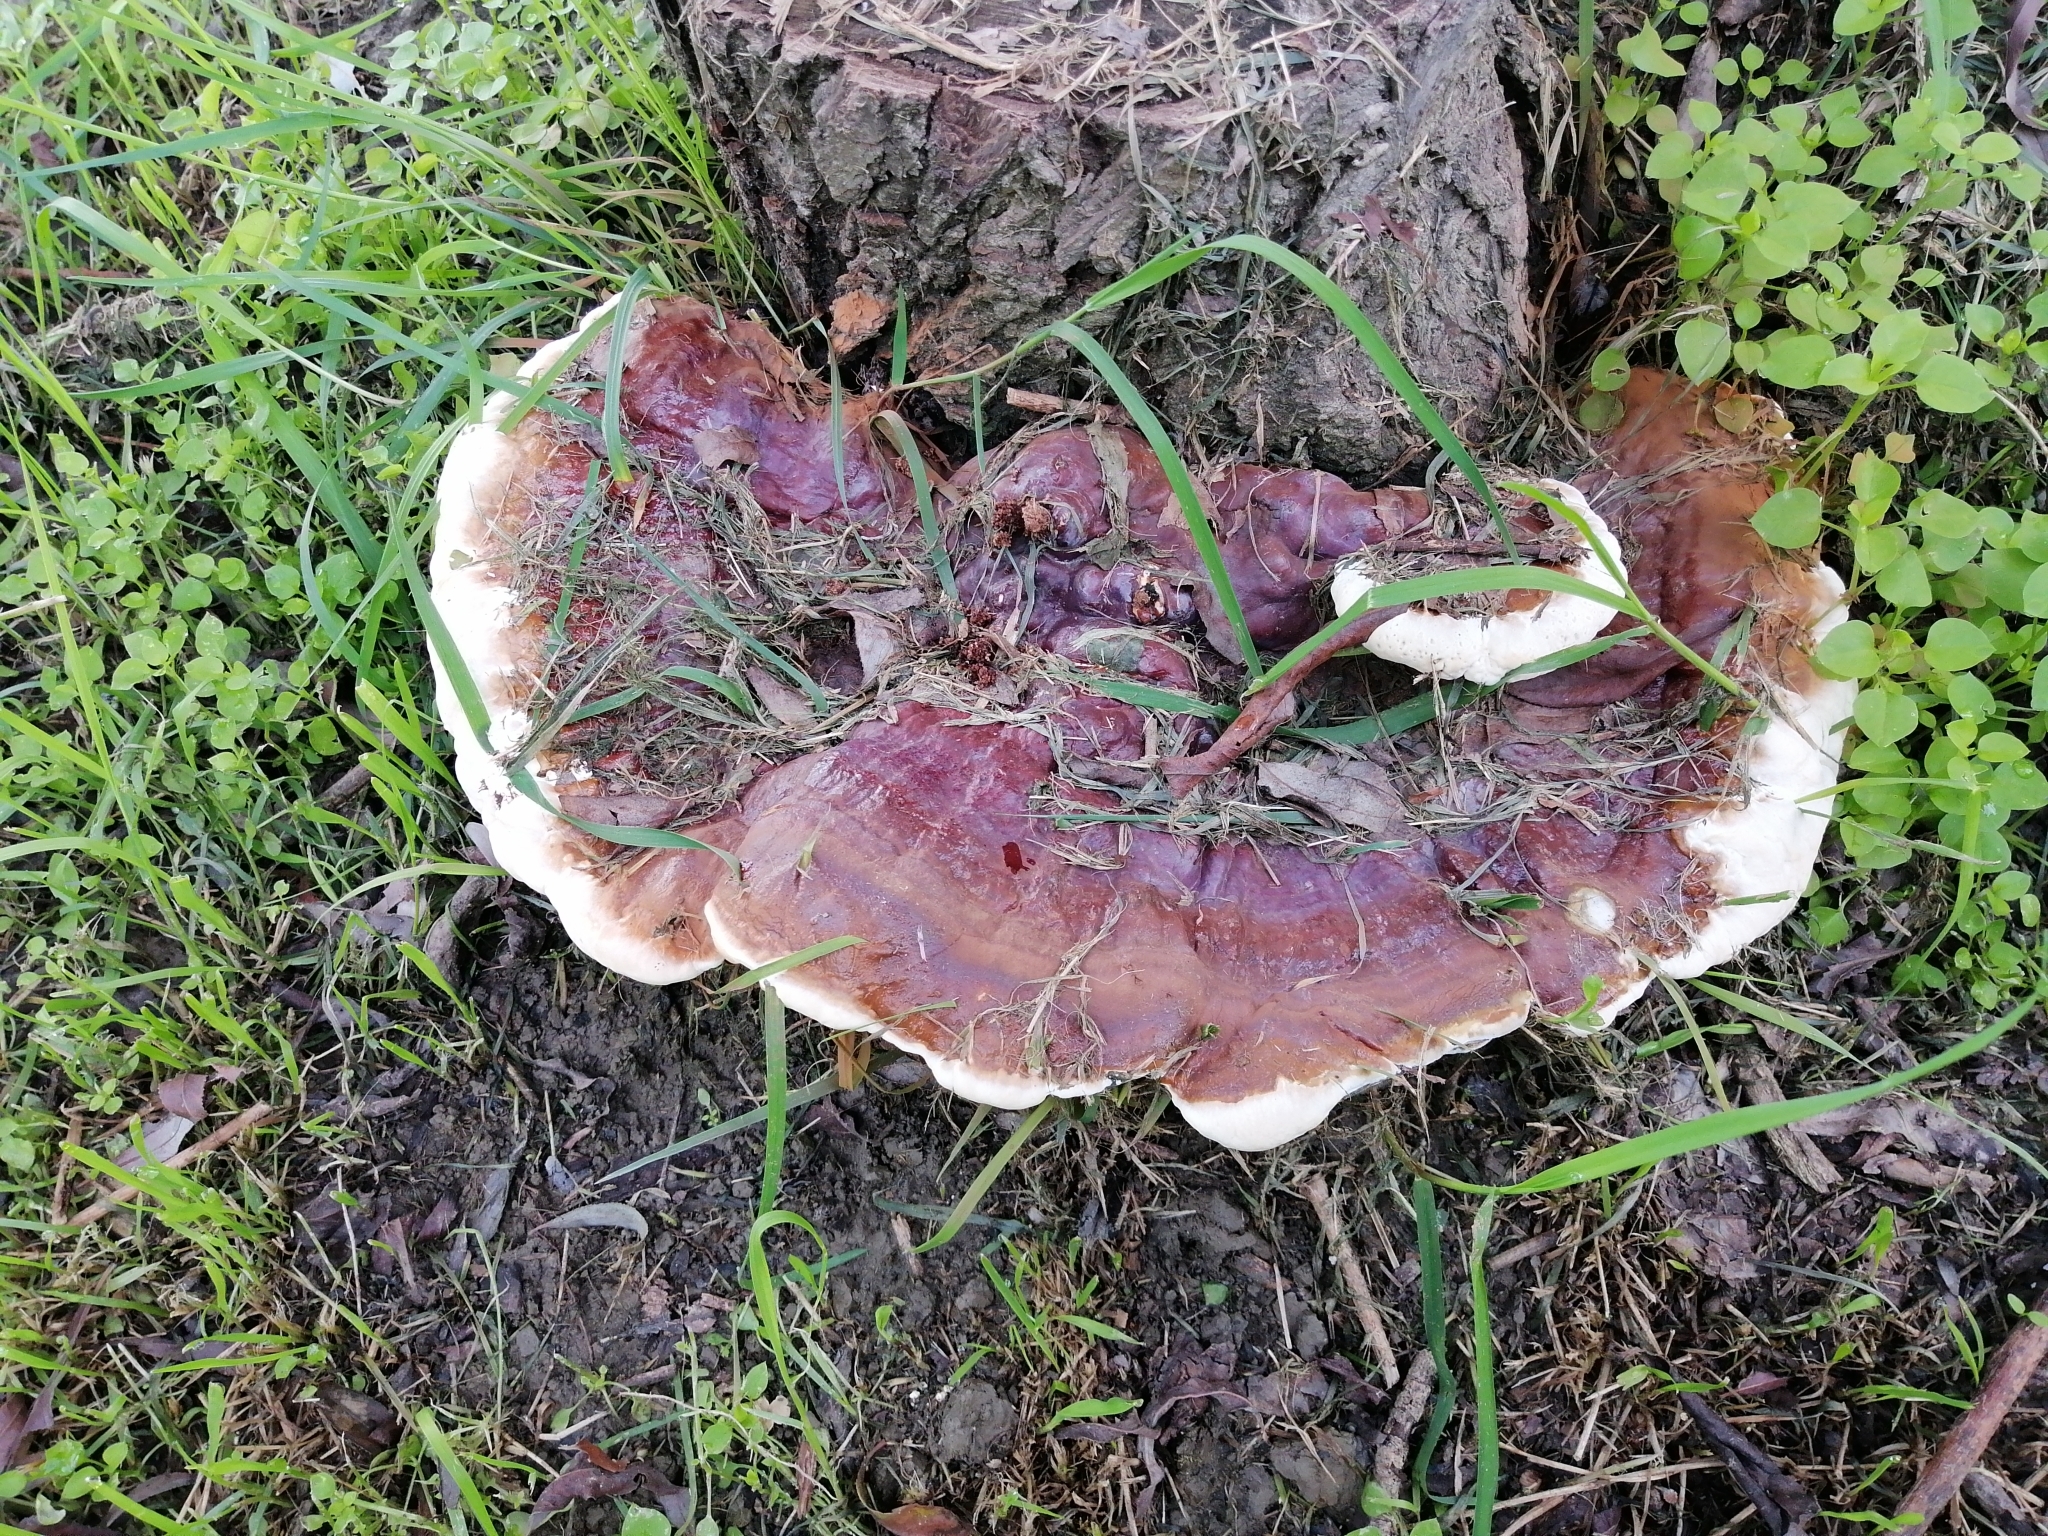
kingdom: Fungi
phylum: Basidiomycota
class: Agaricomycetes
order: Polyporales
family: Polyporaceae
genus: Ganoderma
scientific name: Ganoderma resinaceum
